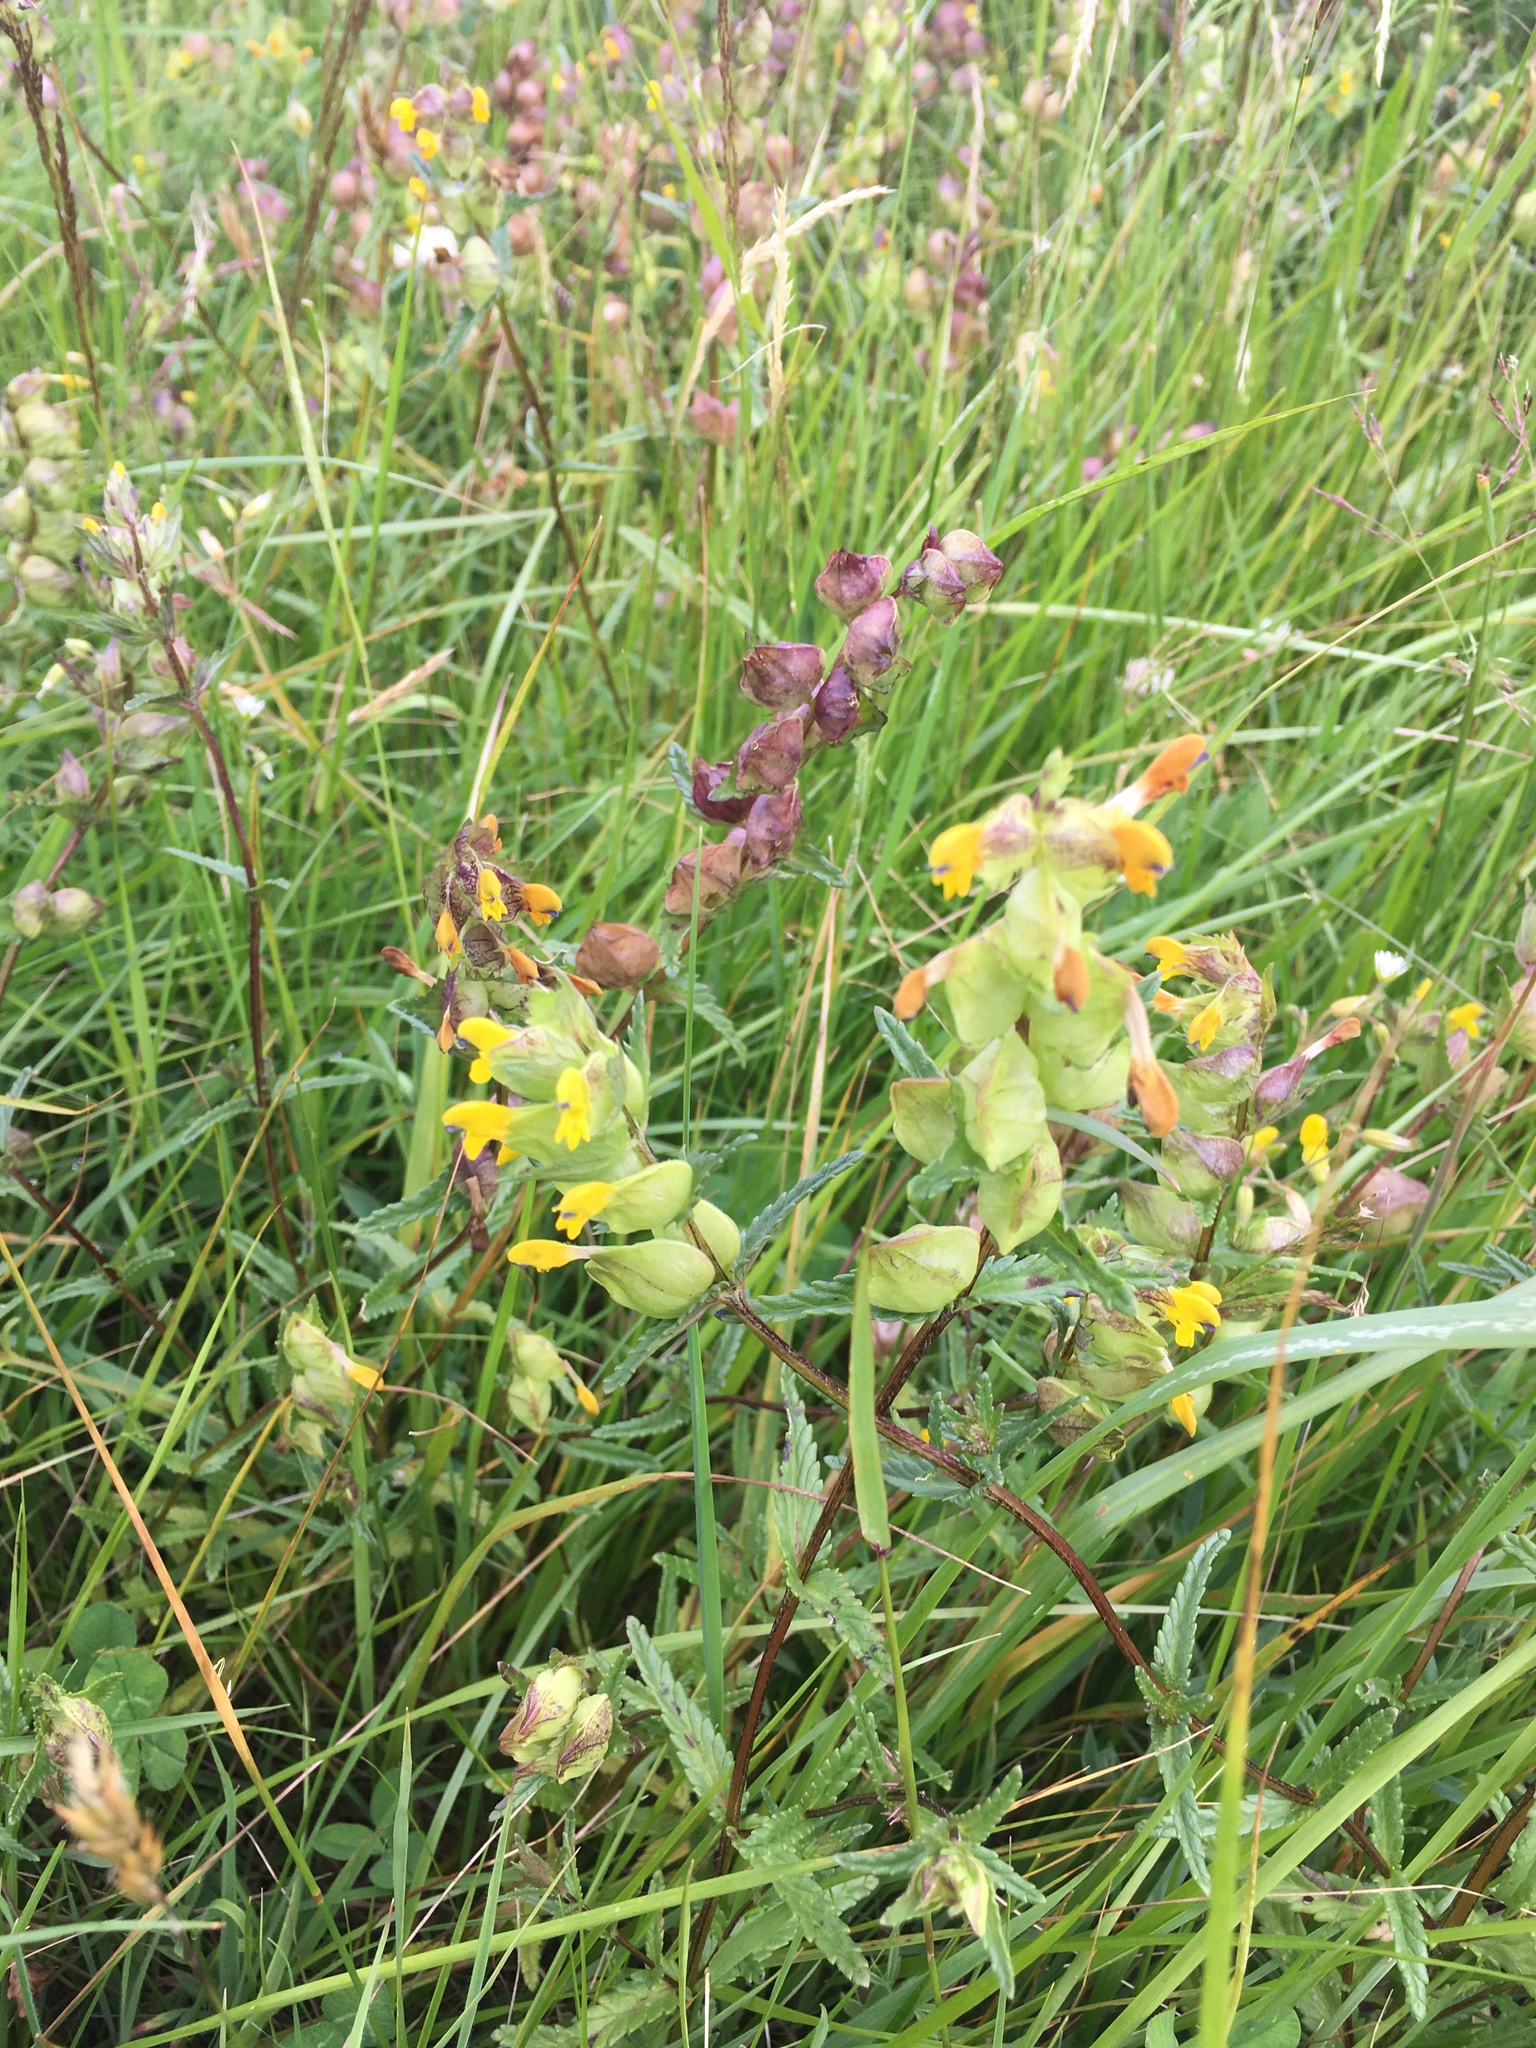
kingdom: Plantae
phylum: Tracheophyta
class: Magnoliopsida
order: Lamiales
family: Orobanchaceae
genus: Rhinanthus
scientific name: Rhinanthus minor
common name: Yellow-rattle
